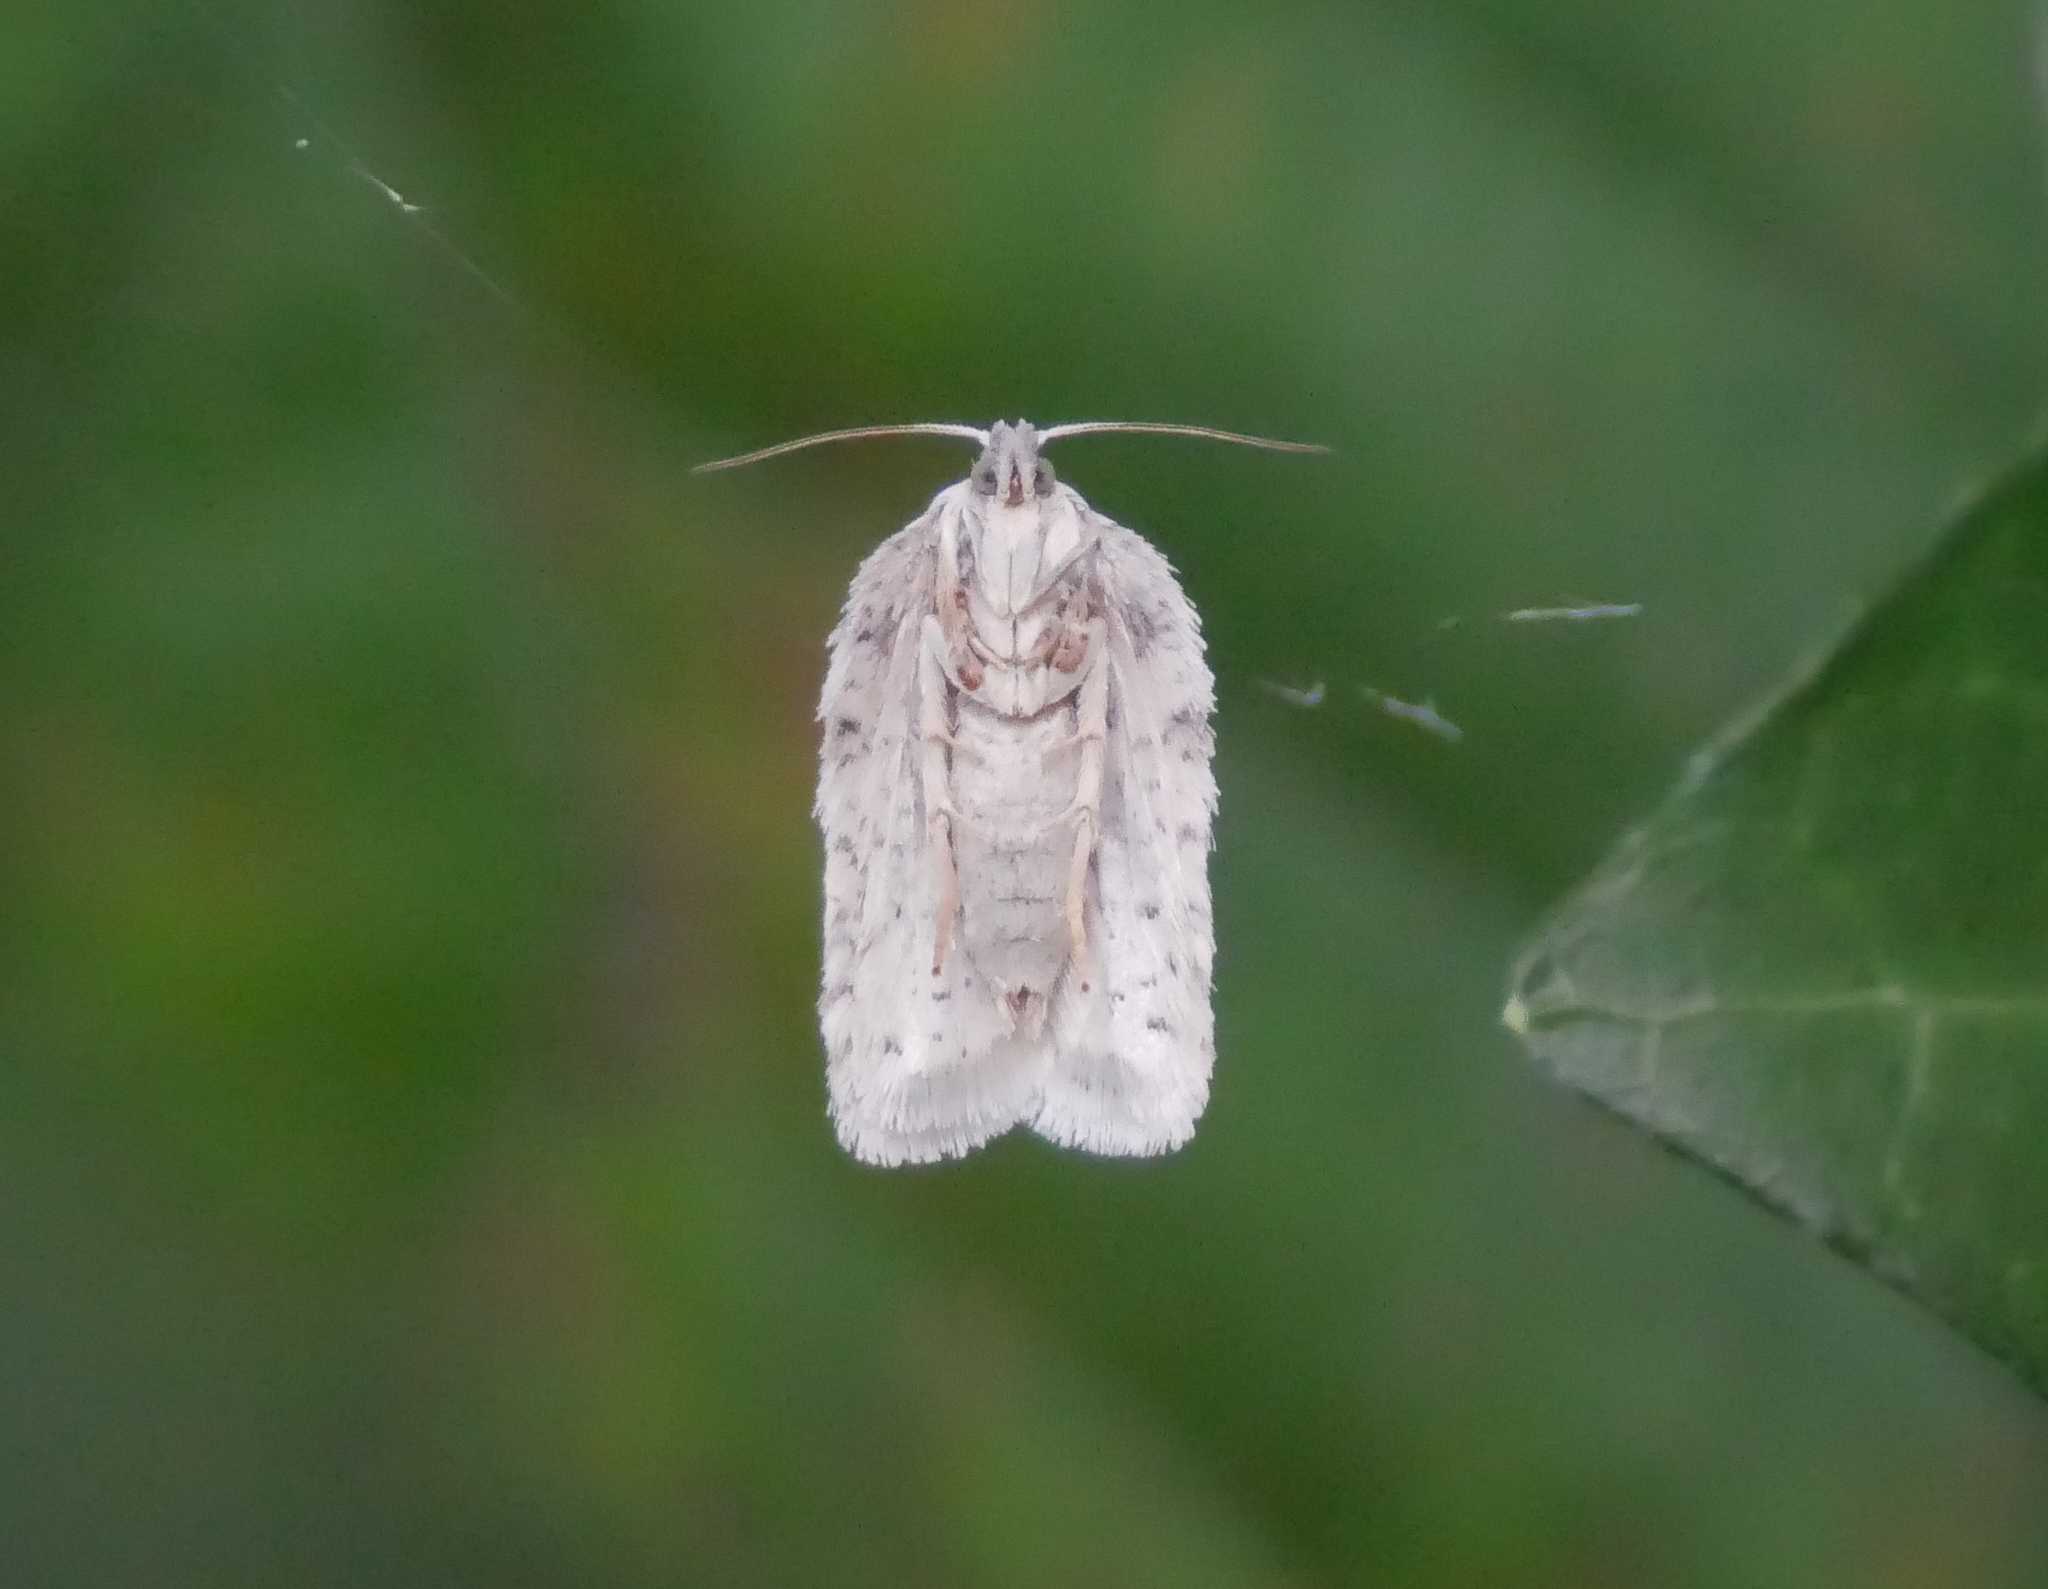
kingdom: Animalia
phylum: Arthropoda
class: Insecta
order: Lepidoptera
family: Tortricidae
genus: Acleris
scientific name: Acleris logiana
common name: Grey birch button
